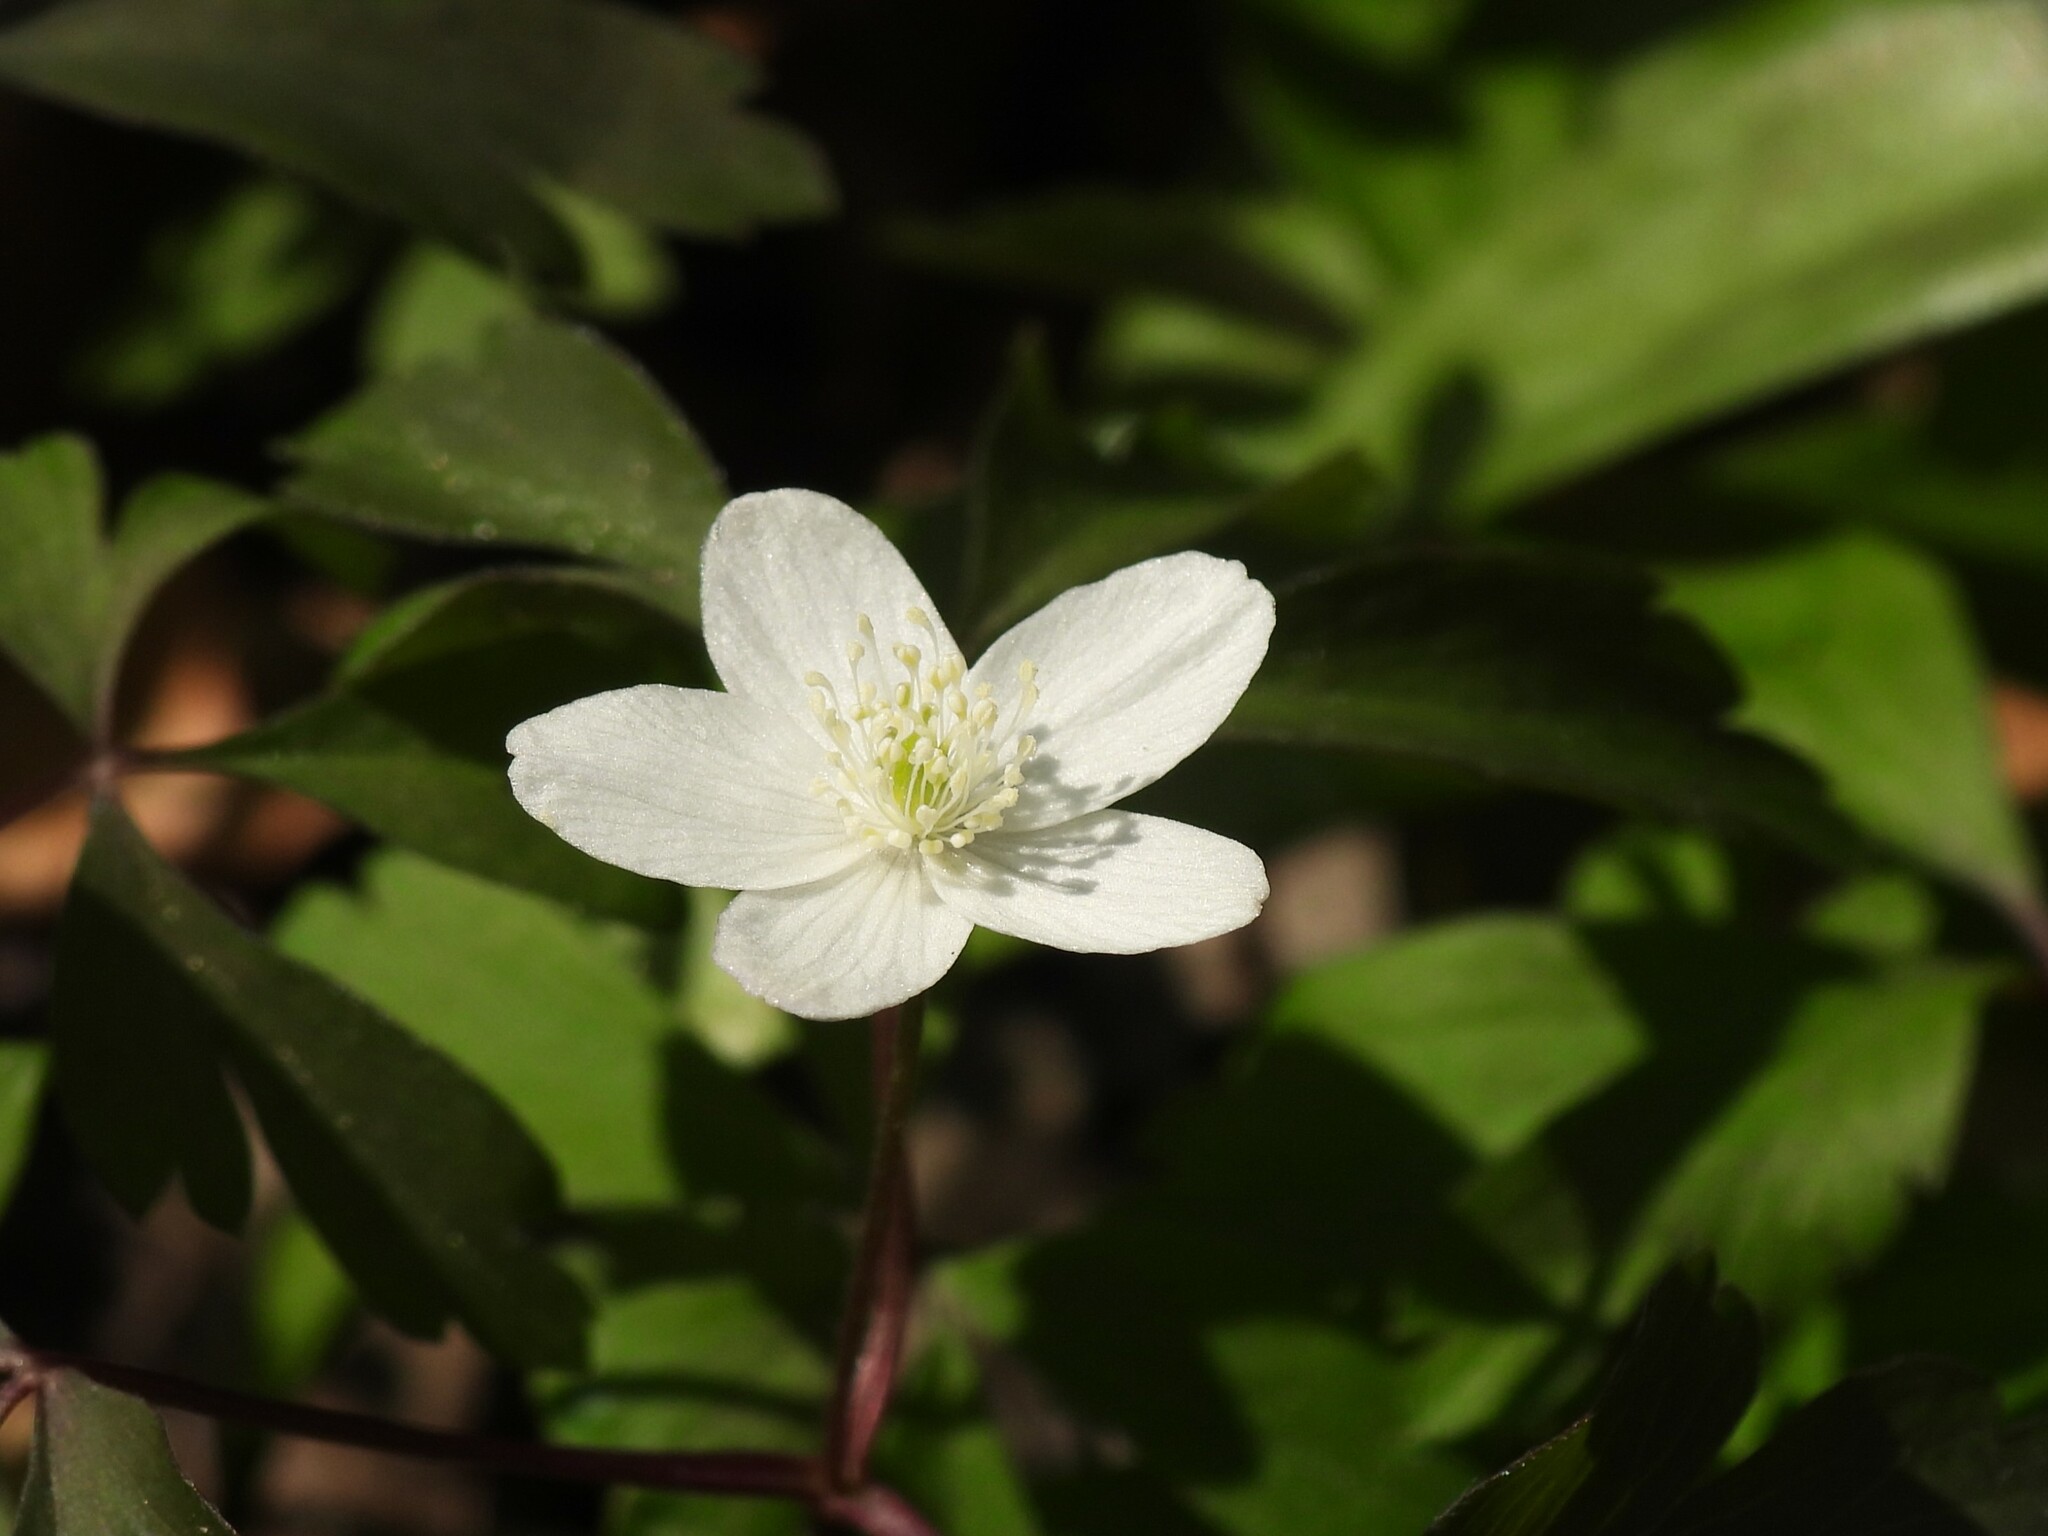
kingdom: Plantae
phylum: Tracheophyta
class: Magnoliopsida
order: Ranunculales
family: Ranunculaceae
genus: Anemone
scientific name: Anemone quinquefolia
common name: Wood anemone
